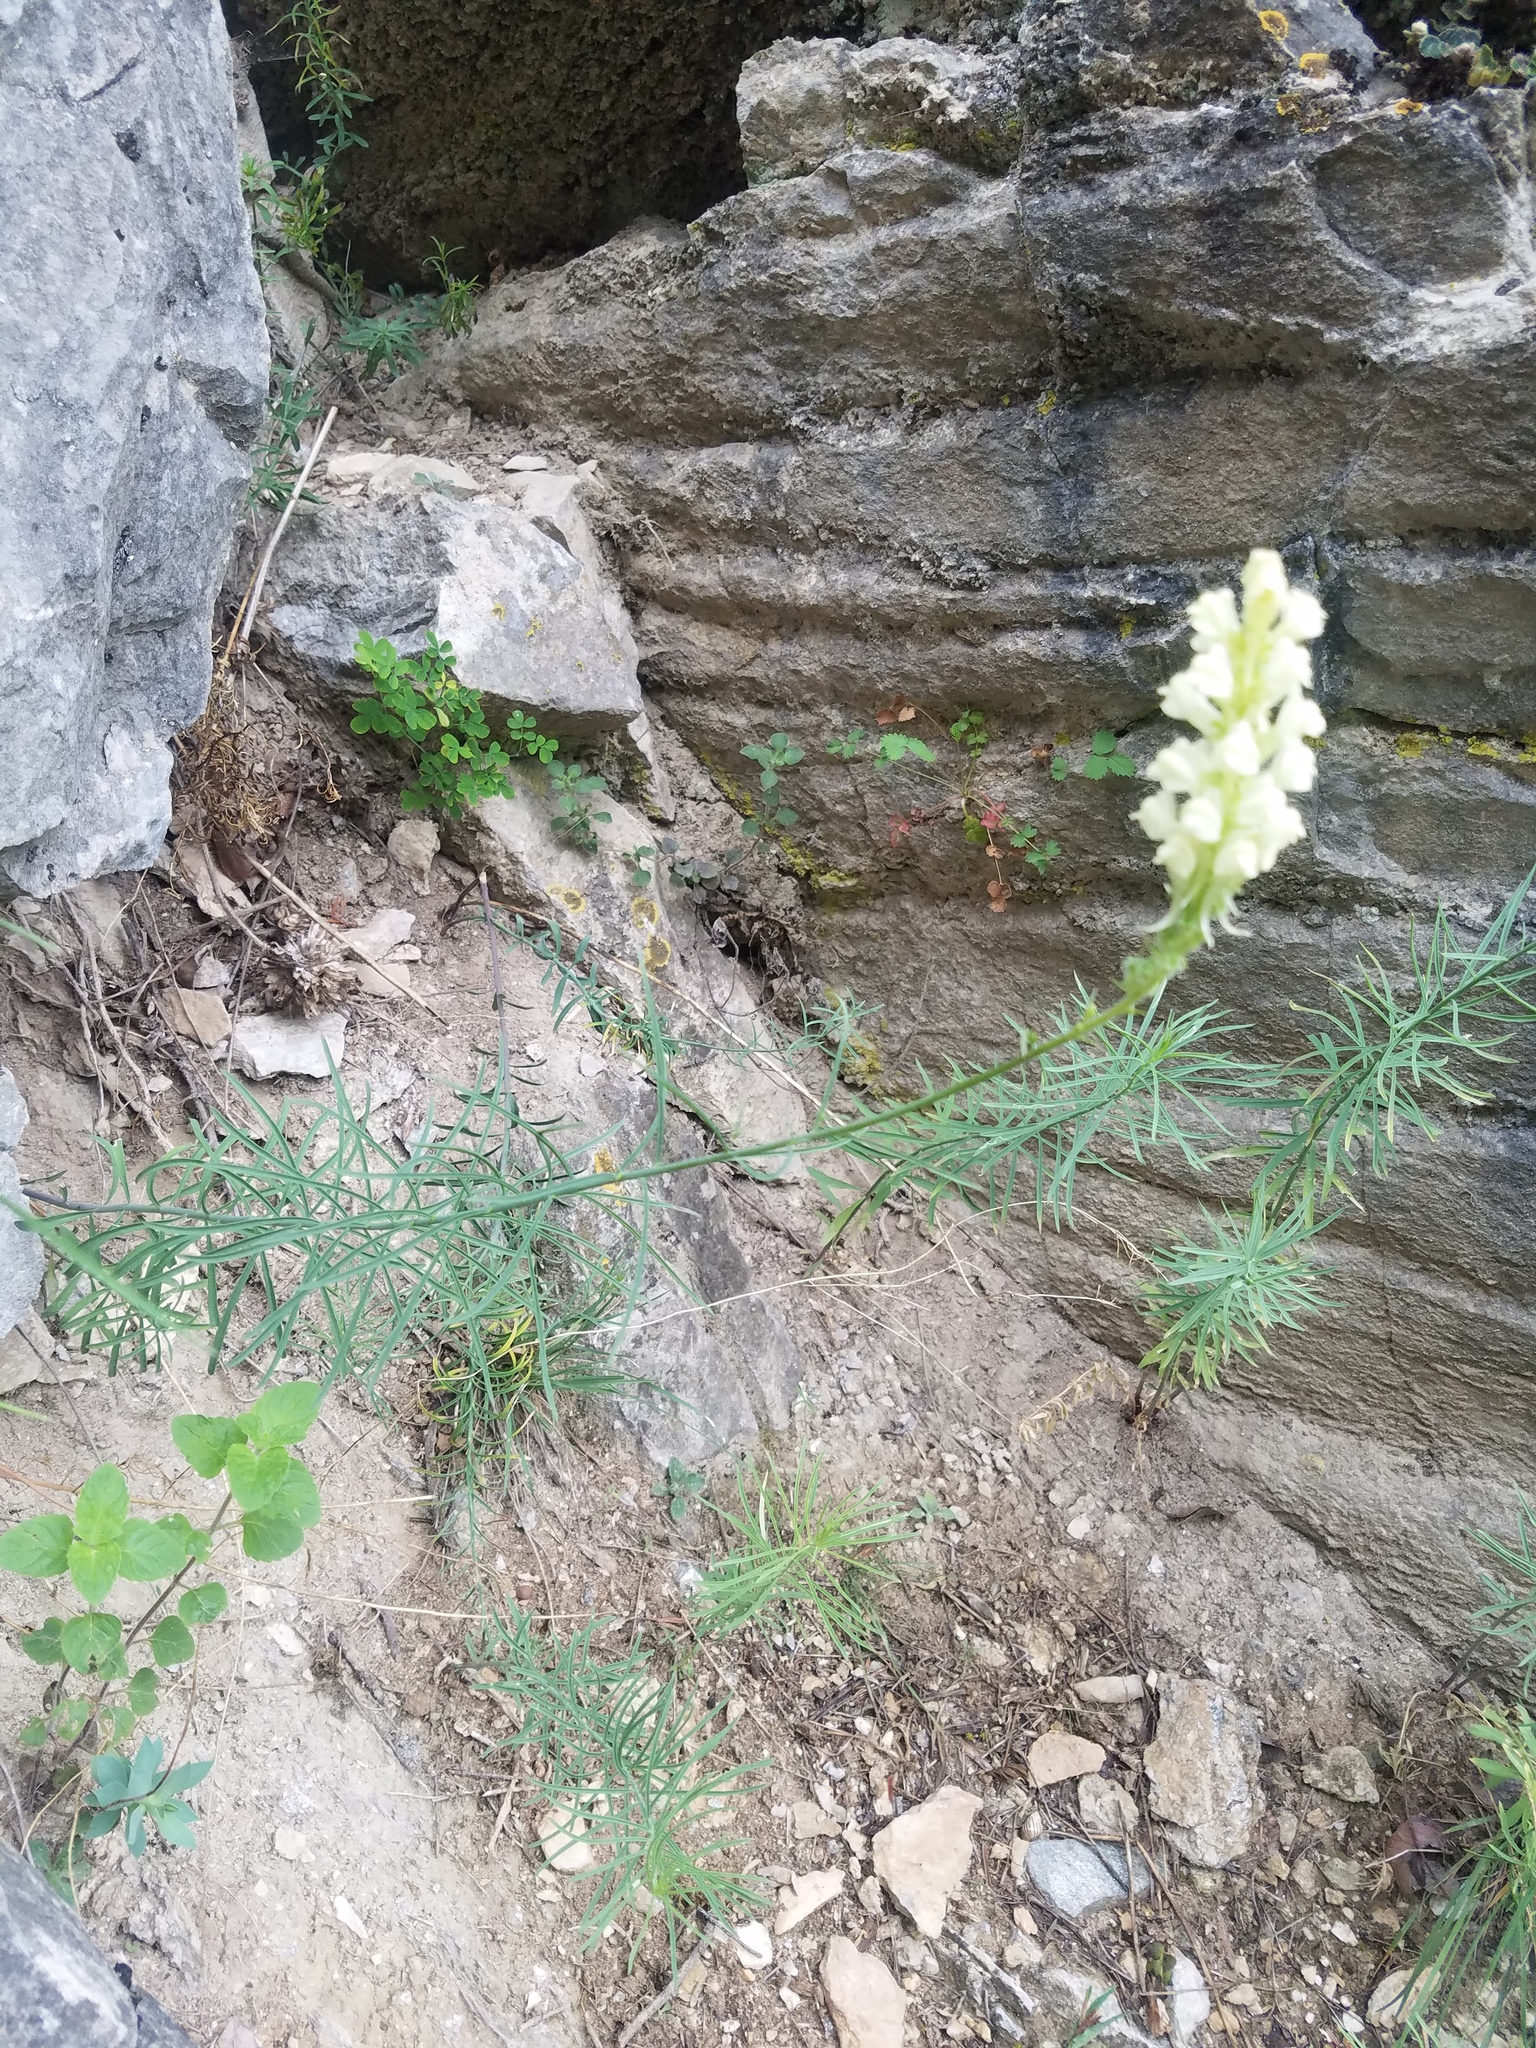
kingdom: Plantae
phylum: Tracheophyta
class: Magnoliopsida
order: Lamiales
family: Plantaginaceae
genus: Linaria
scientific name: Linaria peloponnesiaca
